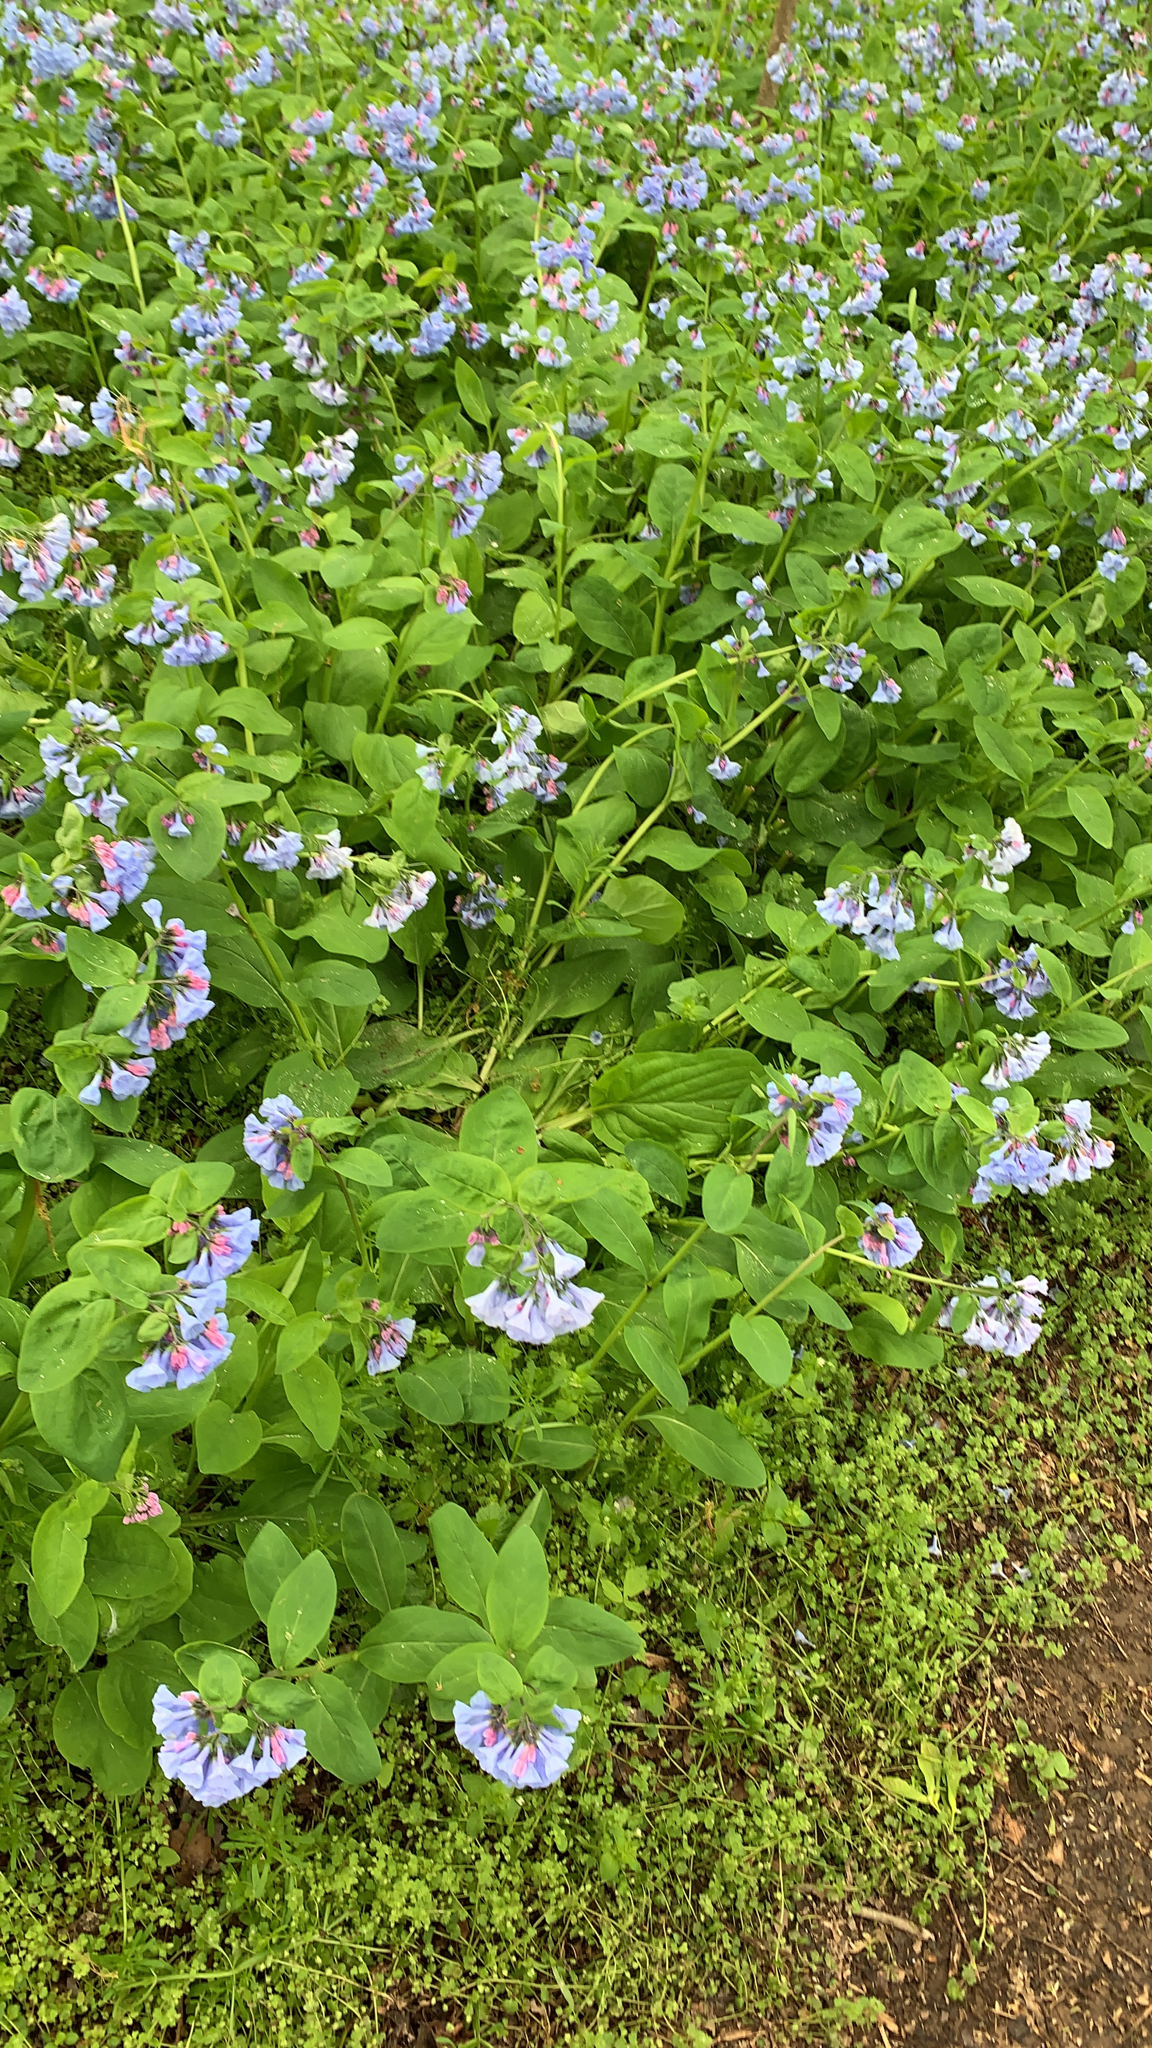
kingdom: Plantae
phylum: Tracheophyta
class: Magnoliopsida
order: Boraginales
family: Boraginaceae
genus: Mertensia
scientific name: Mertensia virginica
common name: Virginia bluebells
